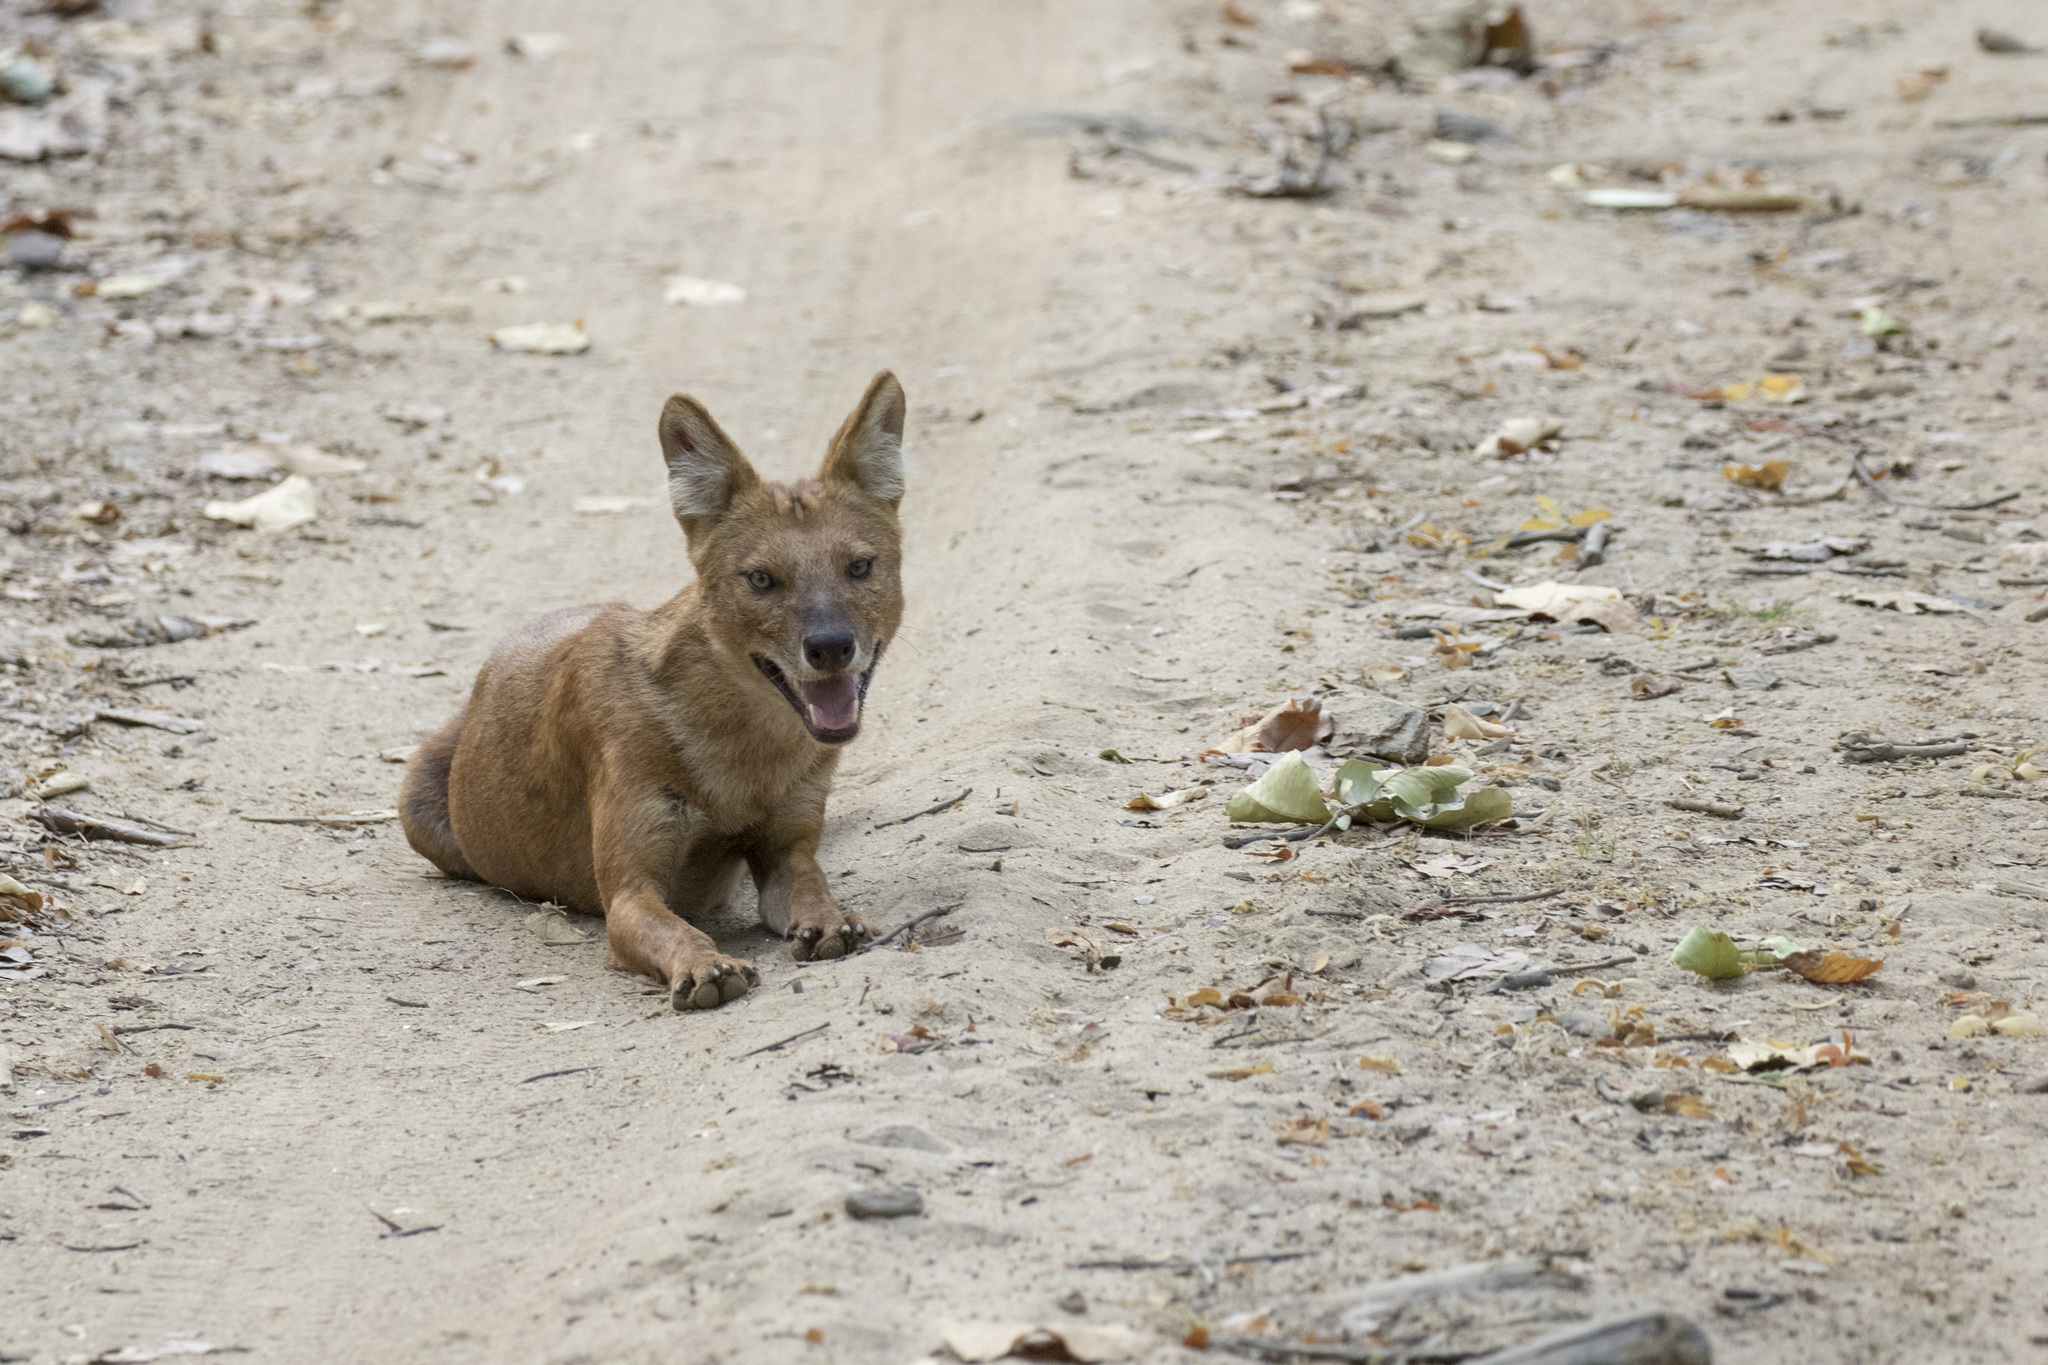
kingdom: Animalia
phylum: Chordata
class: Mammalia
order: Carnivora
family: Canidae
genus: Cuon
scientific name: Cuon alpinus
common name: Dhole
